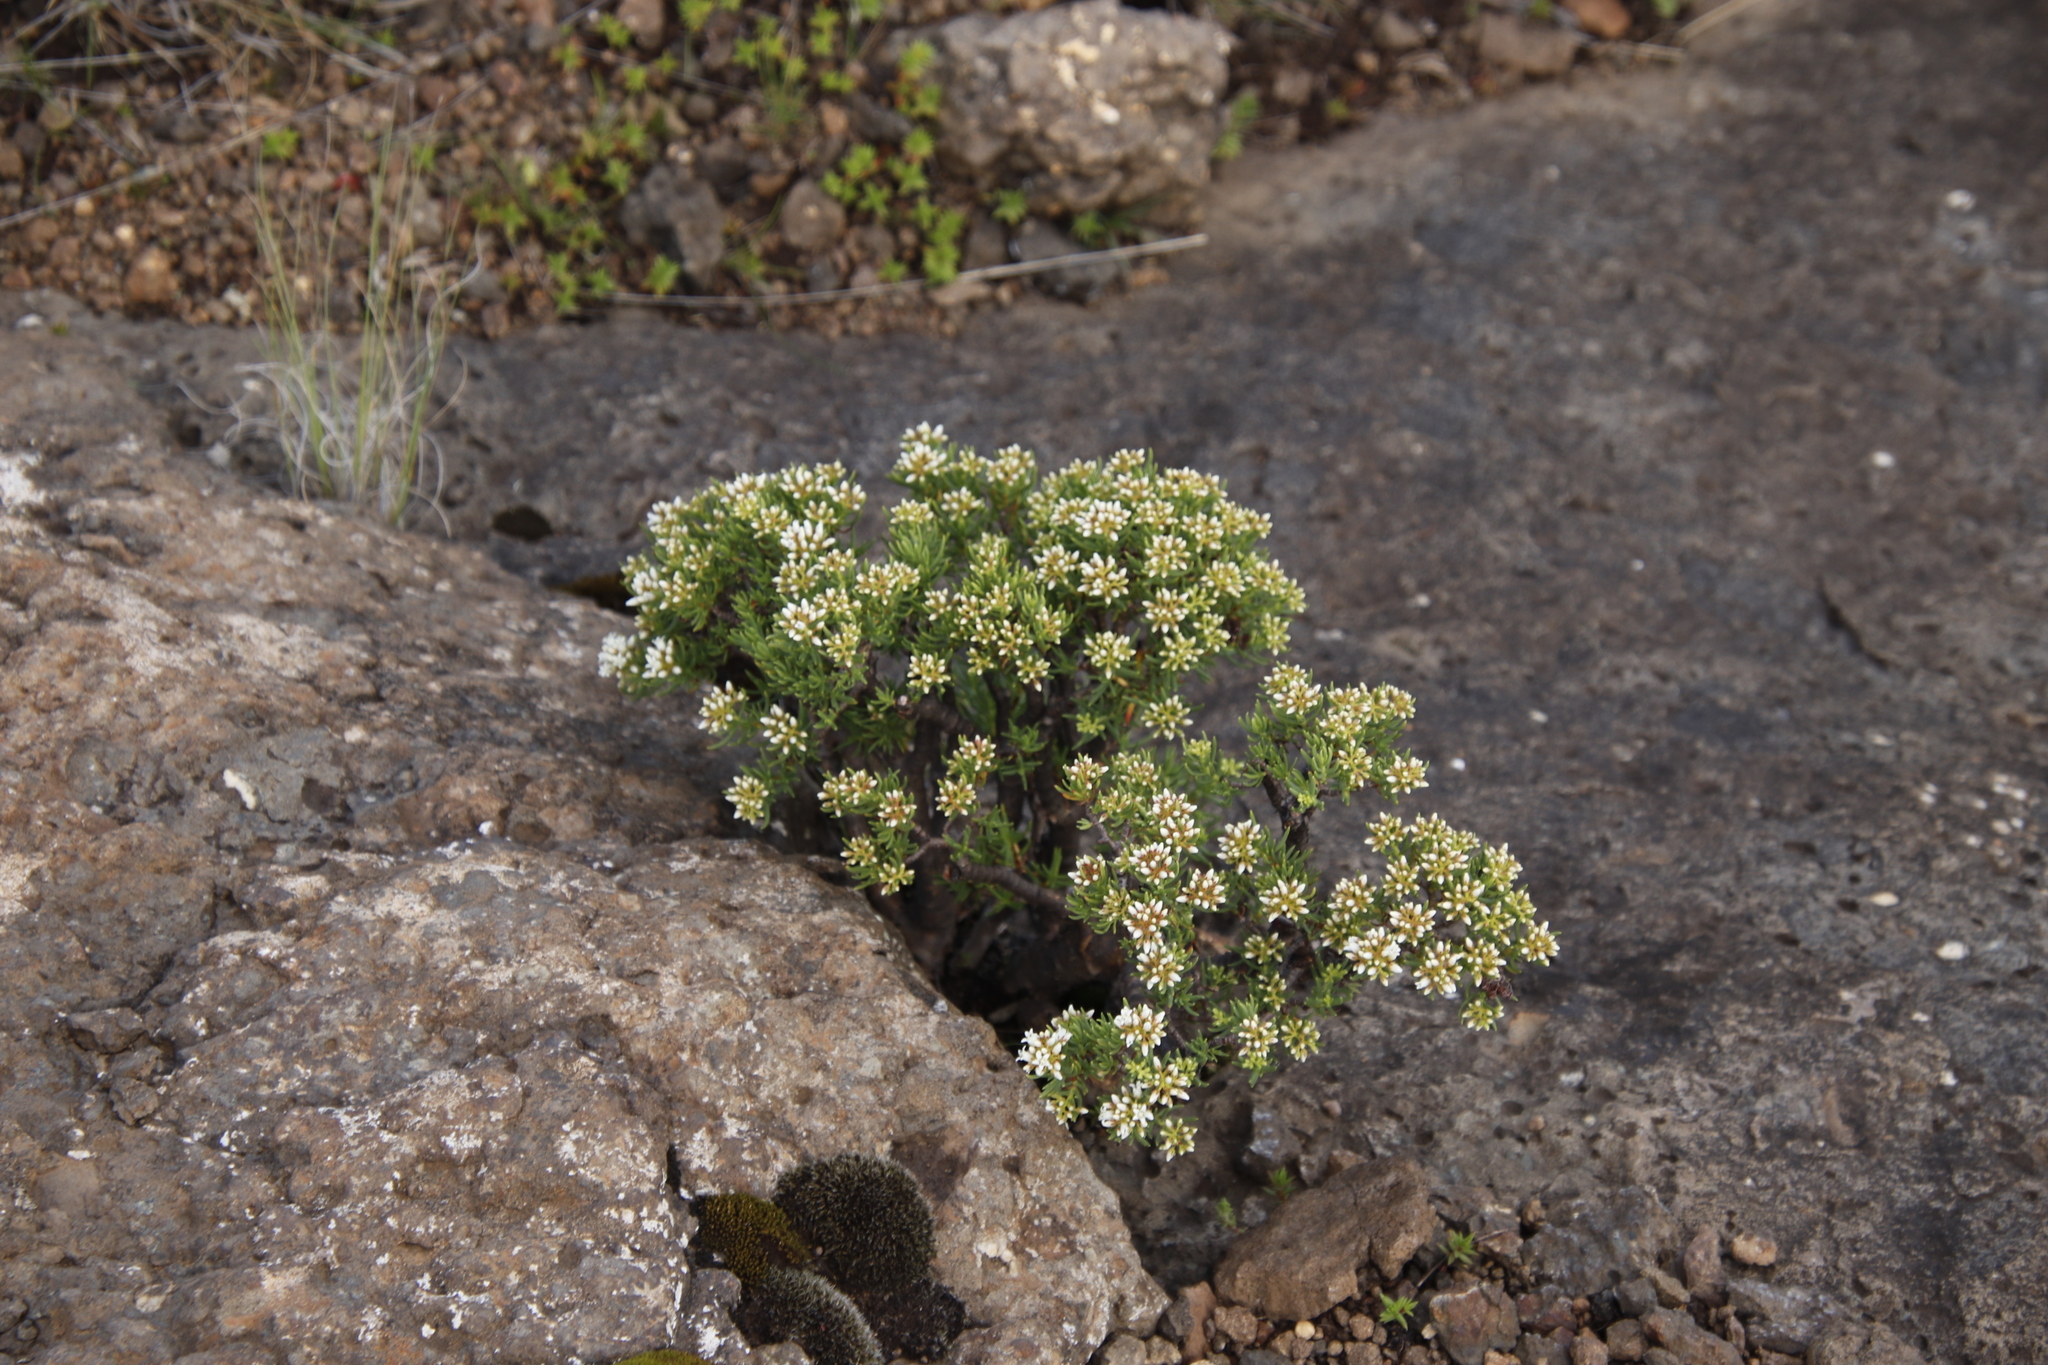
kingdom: Plantae
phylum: Tracheophyta
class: Magnoliopsida
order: Saxifragales
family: Crassulaceae
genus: Crassula
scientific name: Crassula sarcocaulis
